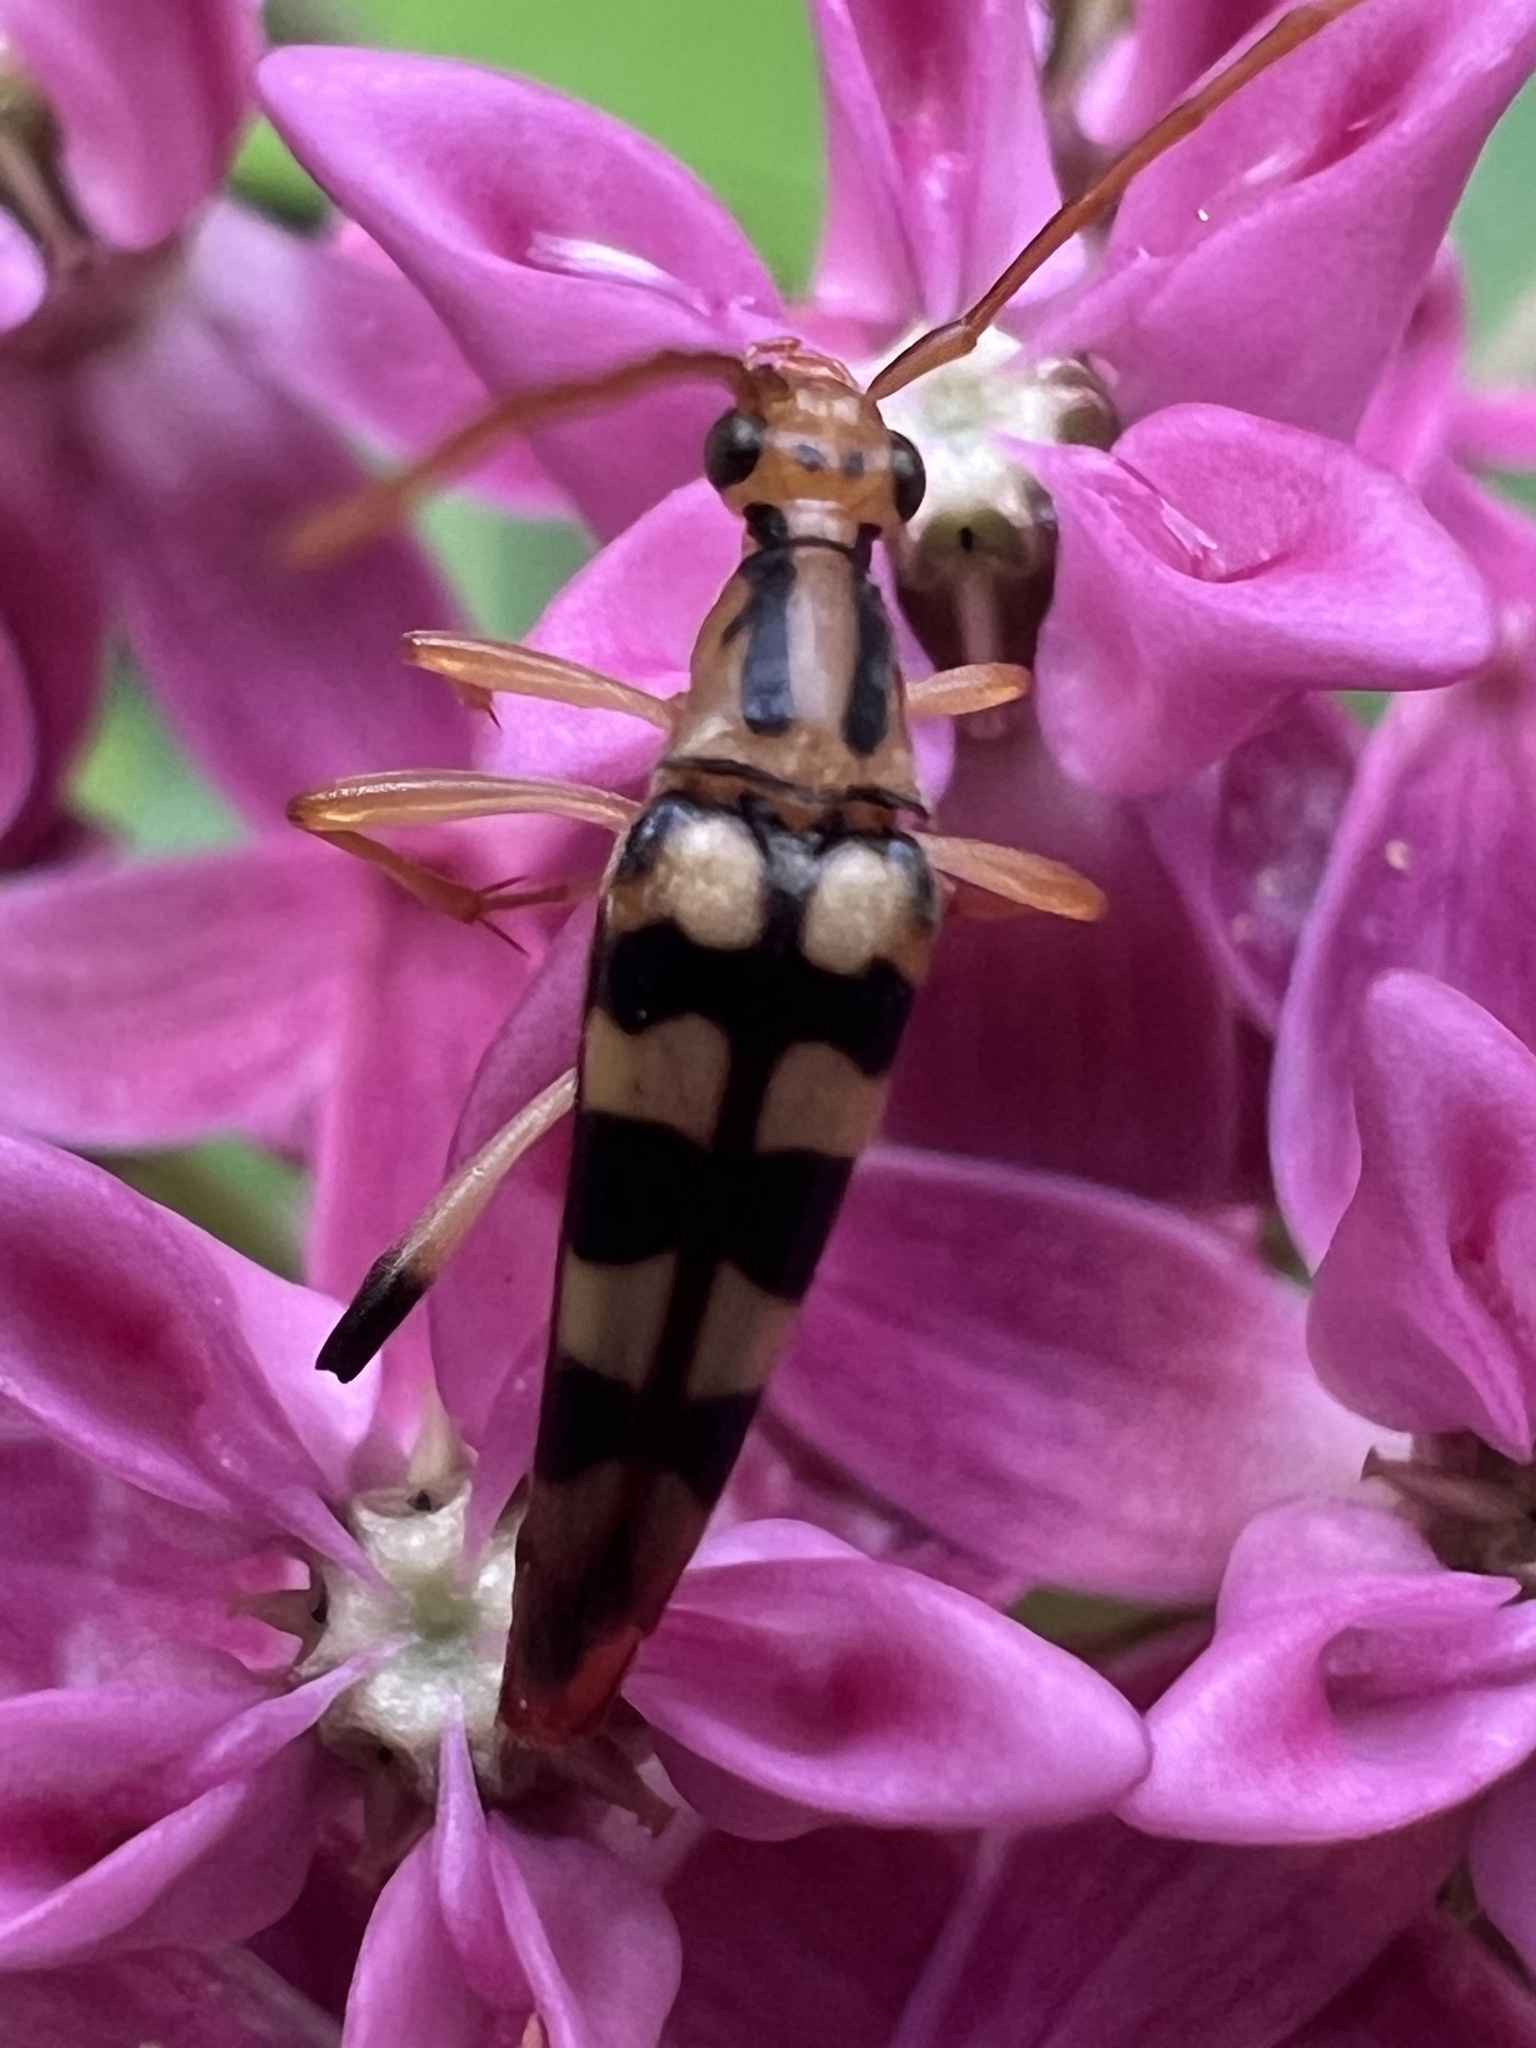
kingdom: Animalia
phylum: Arthropoda
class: Insecta
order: Coleoptera
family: Cerambycidae
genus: Strangalia
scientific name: Strangalia luteicornis
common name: Yellow-horned flower longhorn beetle
